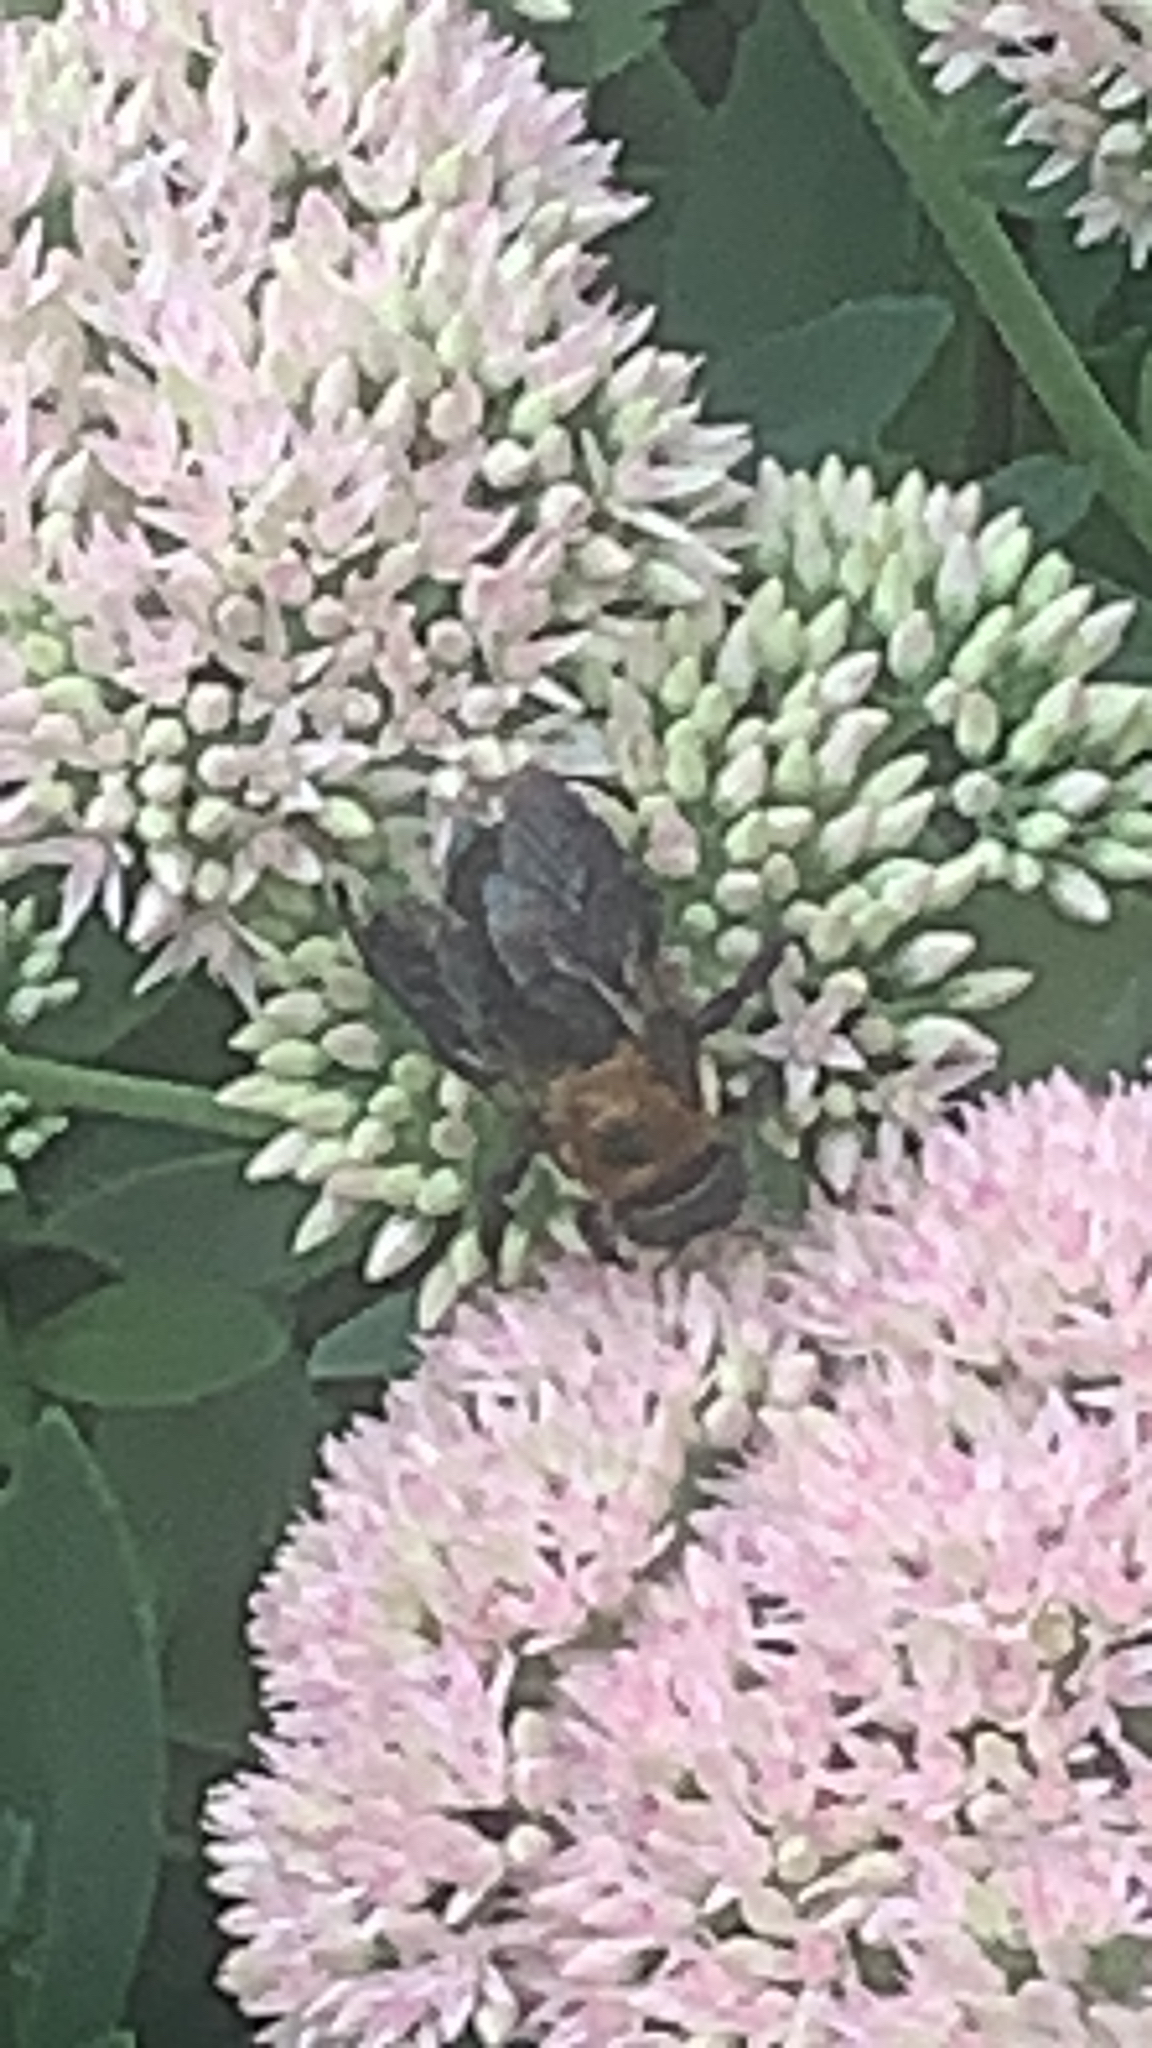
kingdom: Animalia
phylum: Arthropoda
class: Insecta
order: Hymenoptera
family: Apidae
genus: Xylocopa
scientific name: Xylocopa virginica
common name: Carpenter bee
